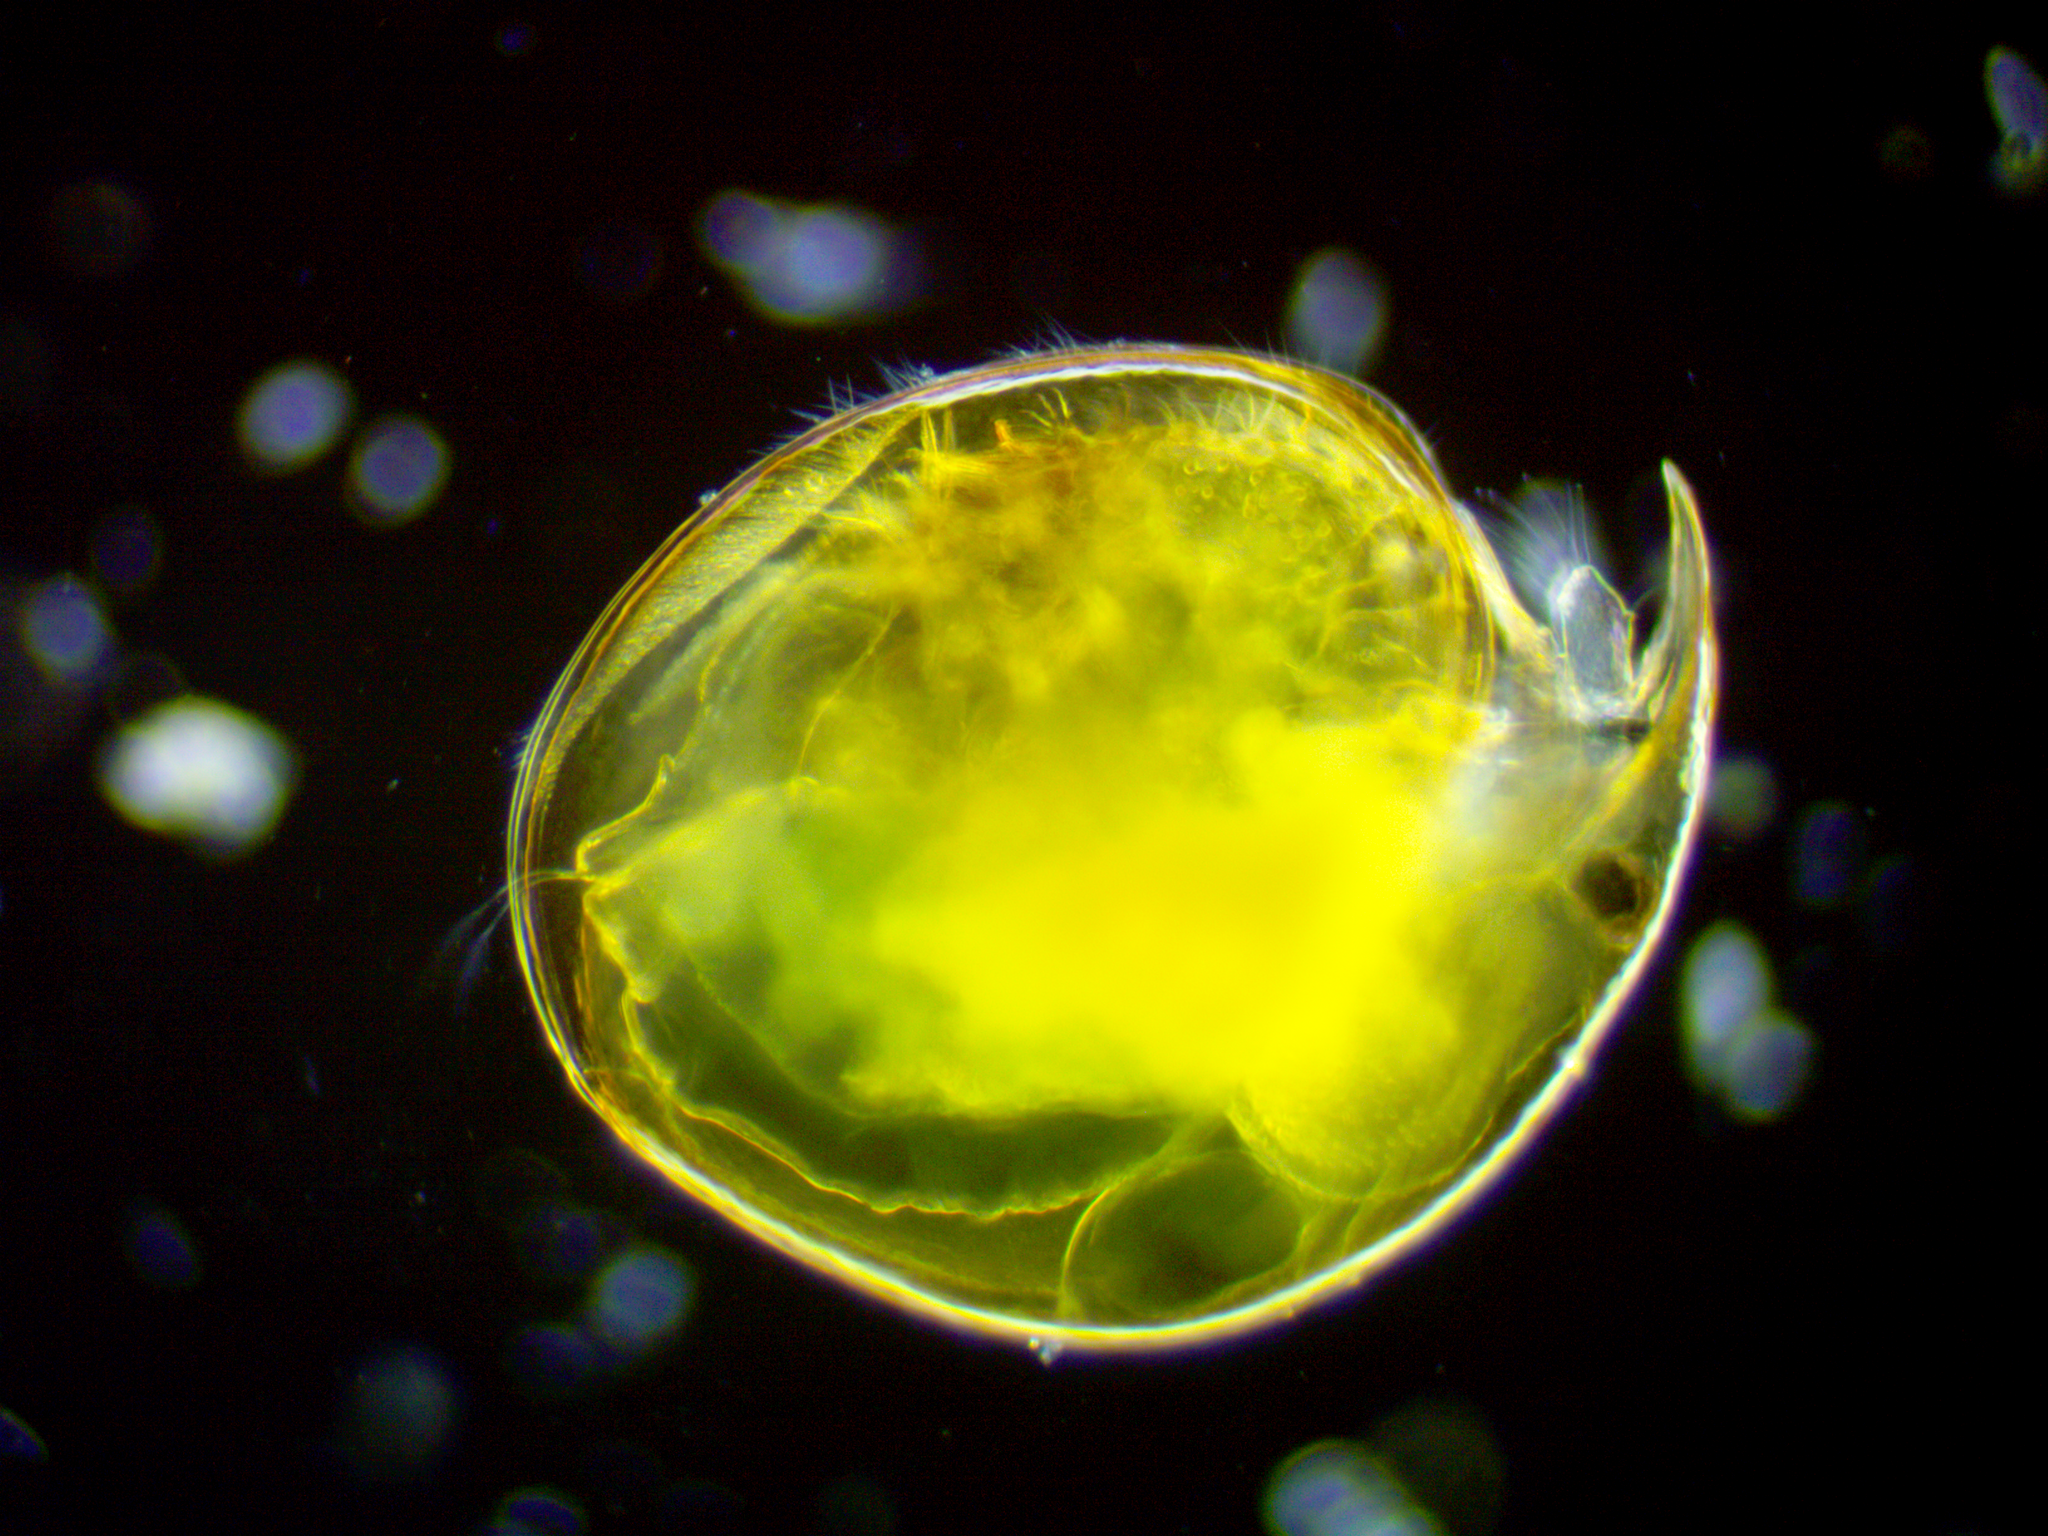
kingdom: Animalia
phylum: Arthropoda
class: Branchiopoda
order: Diplostraca
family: Chydoridae
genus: Pseudochydorus
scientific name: Pseudochydorus globosus
